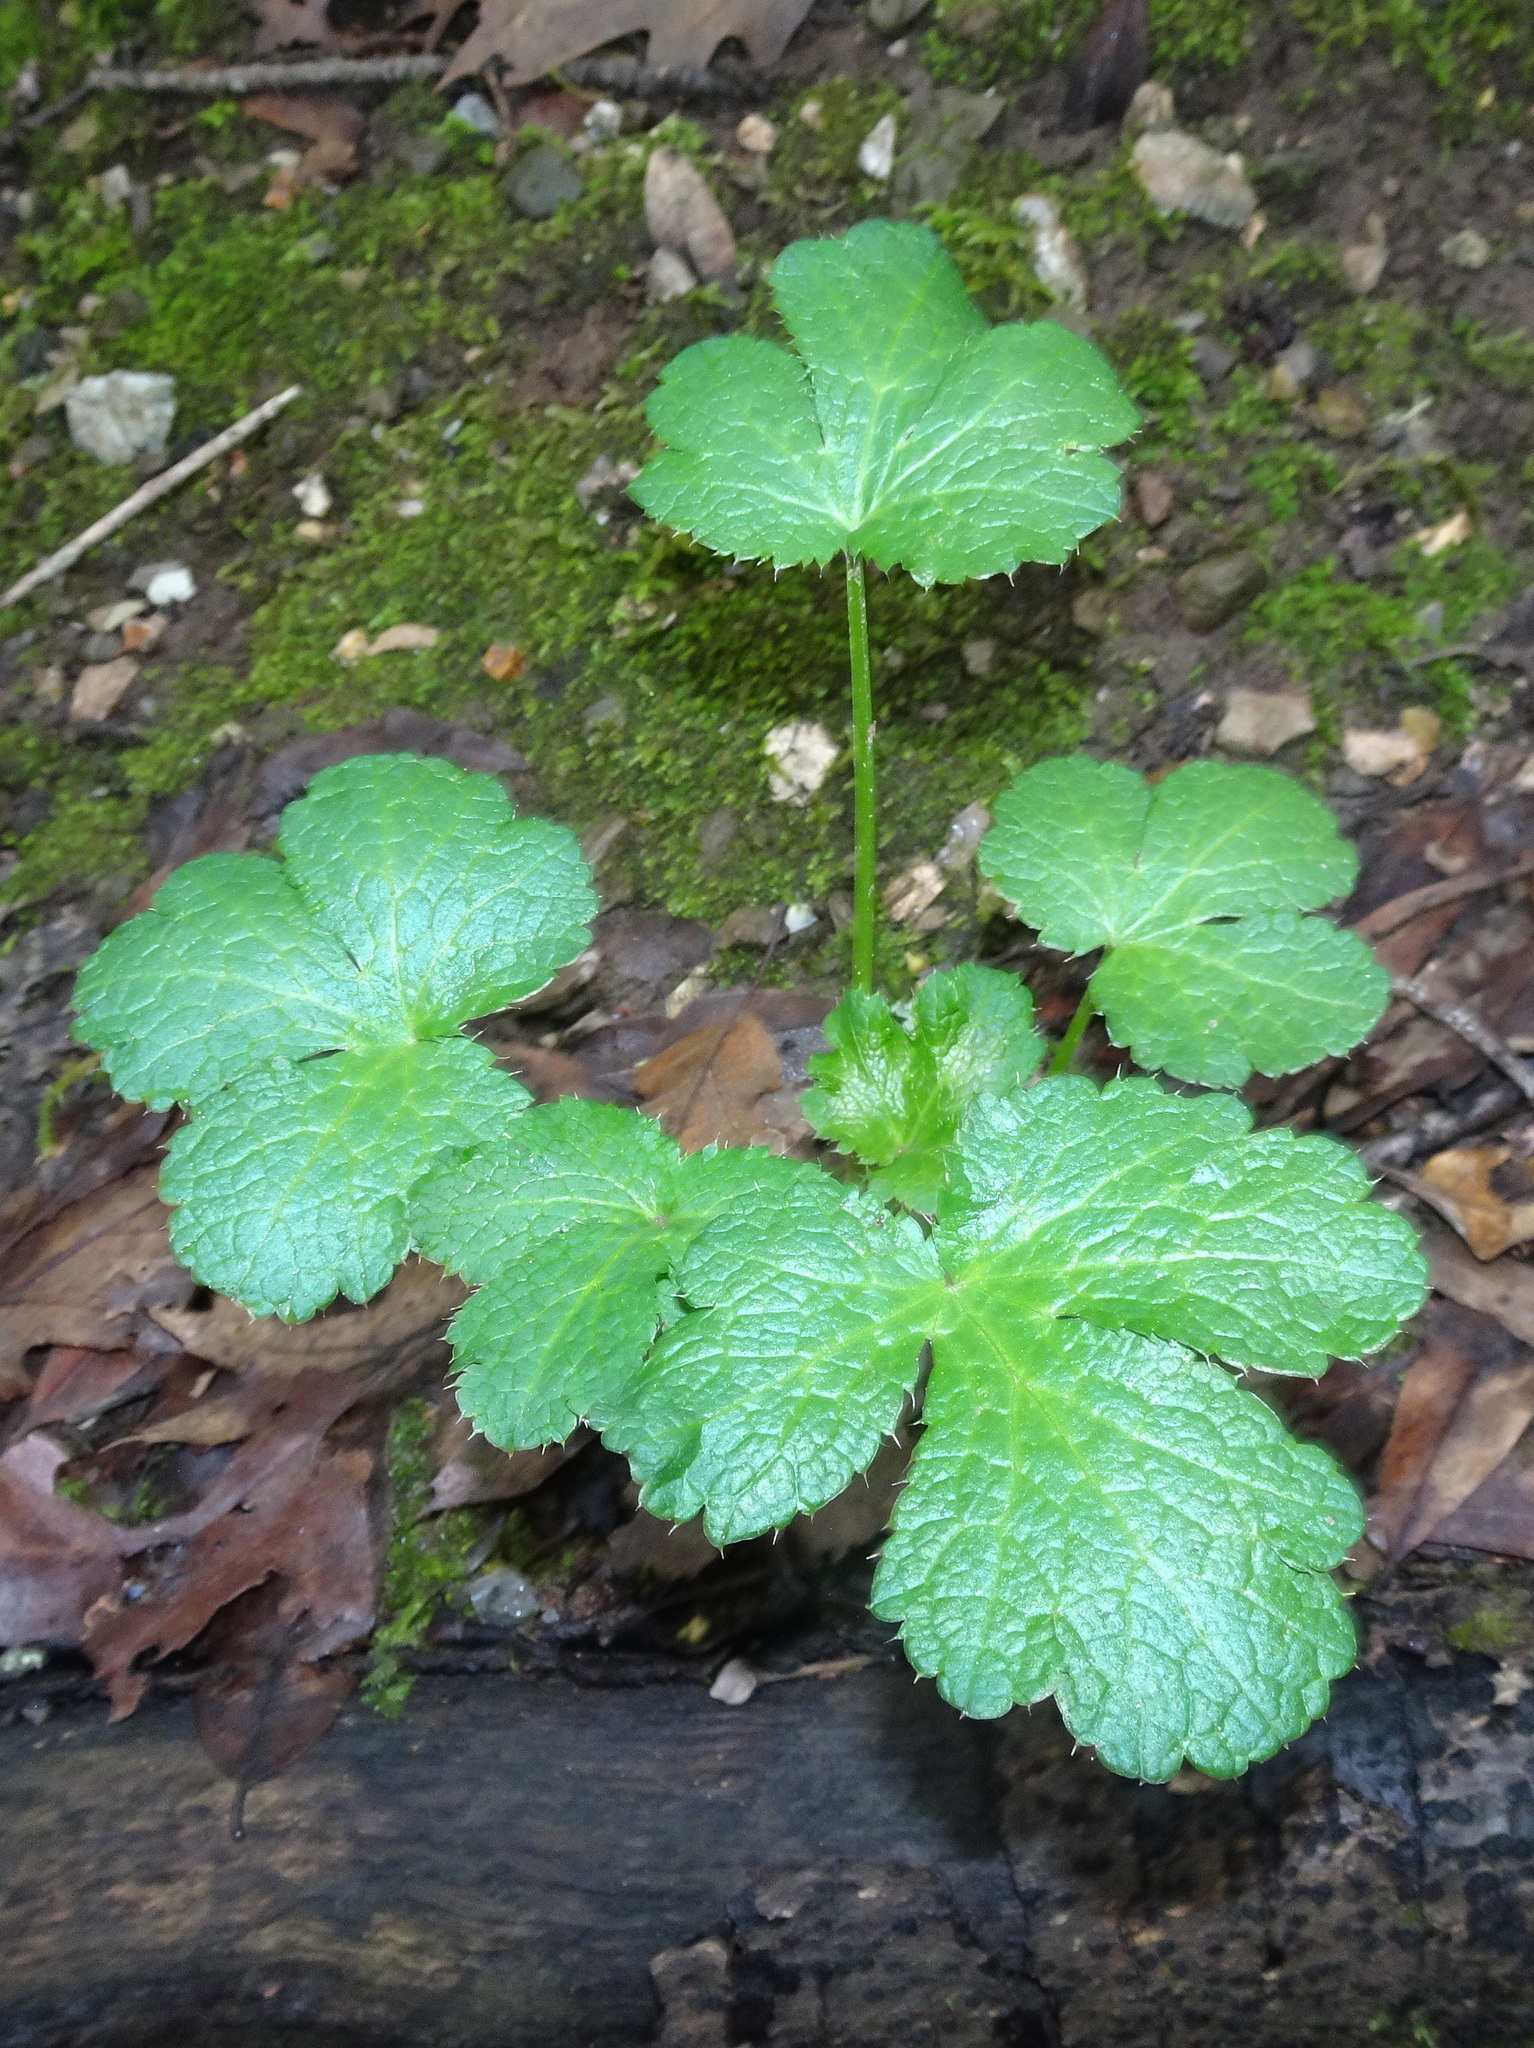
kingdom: Plantae
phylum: Tracheophyta
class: Magnoliopsida
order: Apiales
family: Apiaceae
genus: Sanicula
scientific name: Sanicula crassicaulis
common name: Western snakeroot
